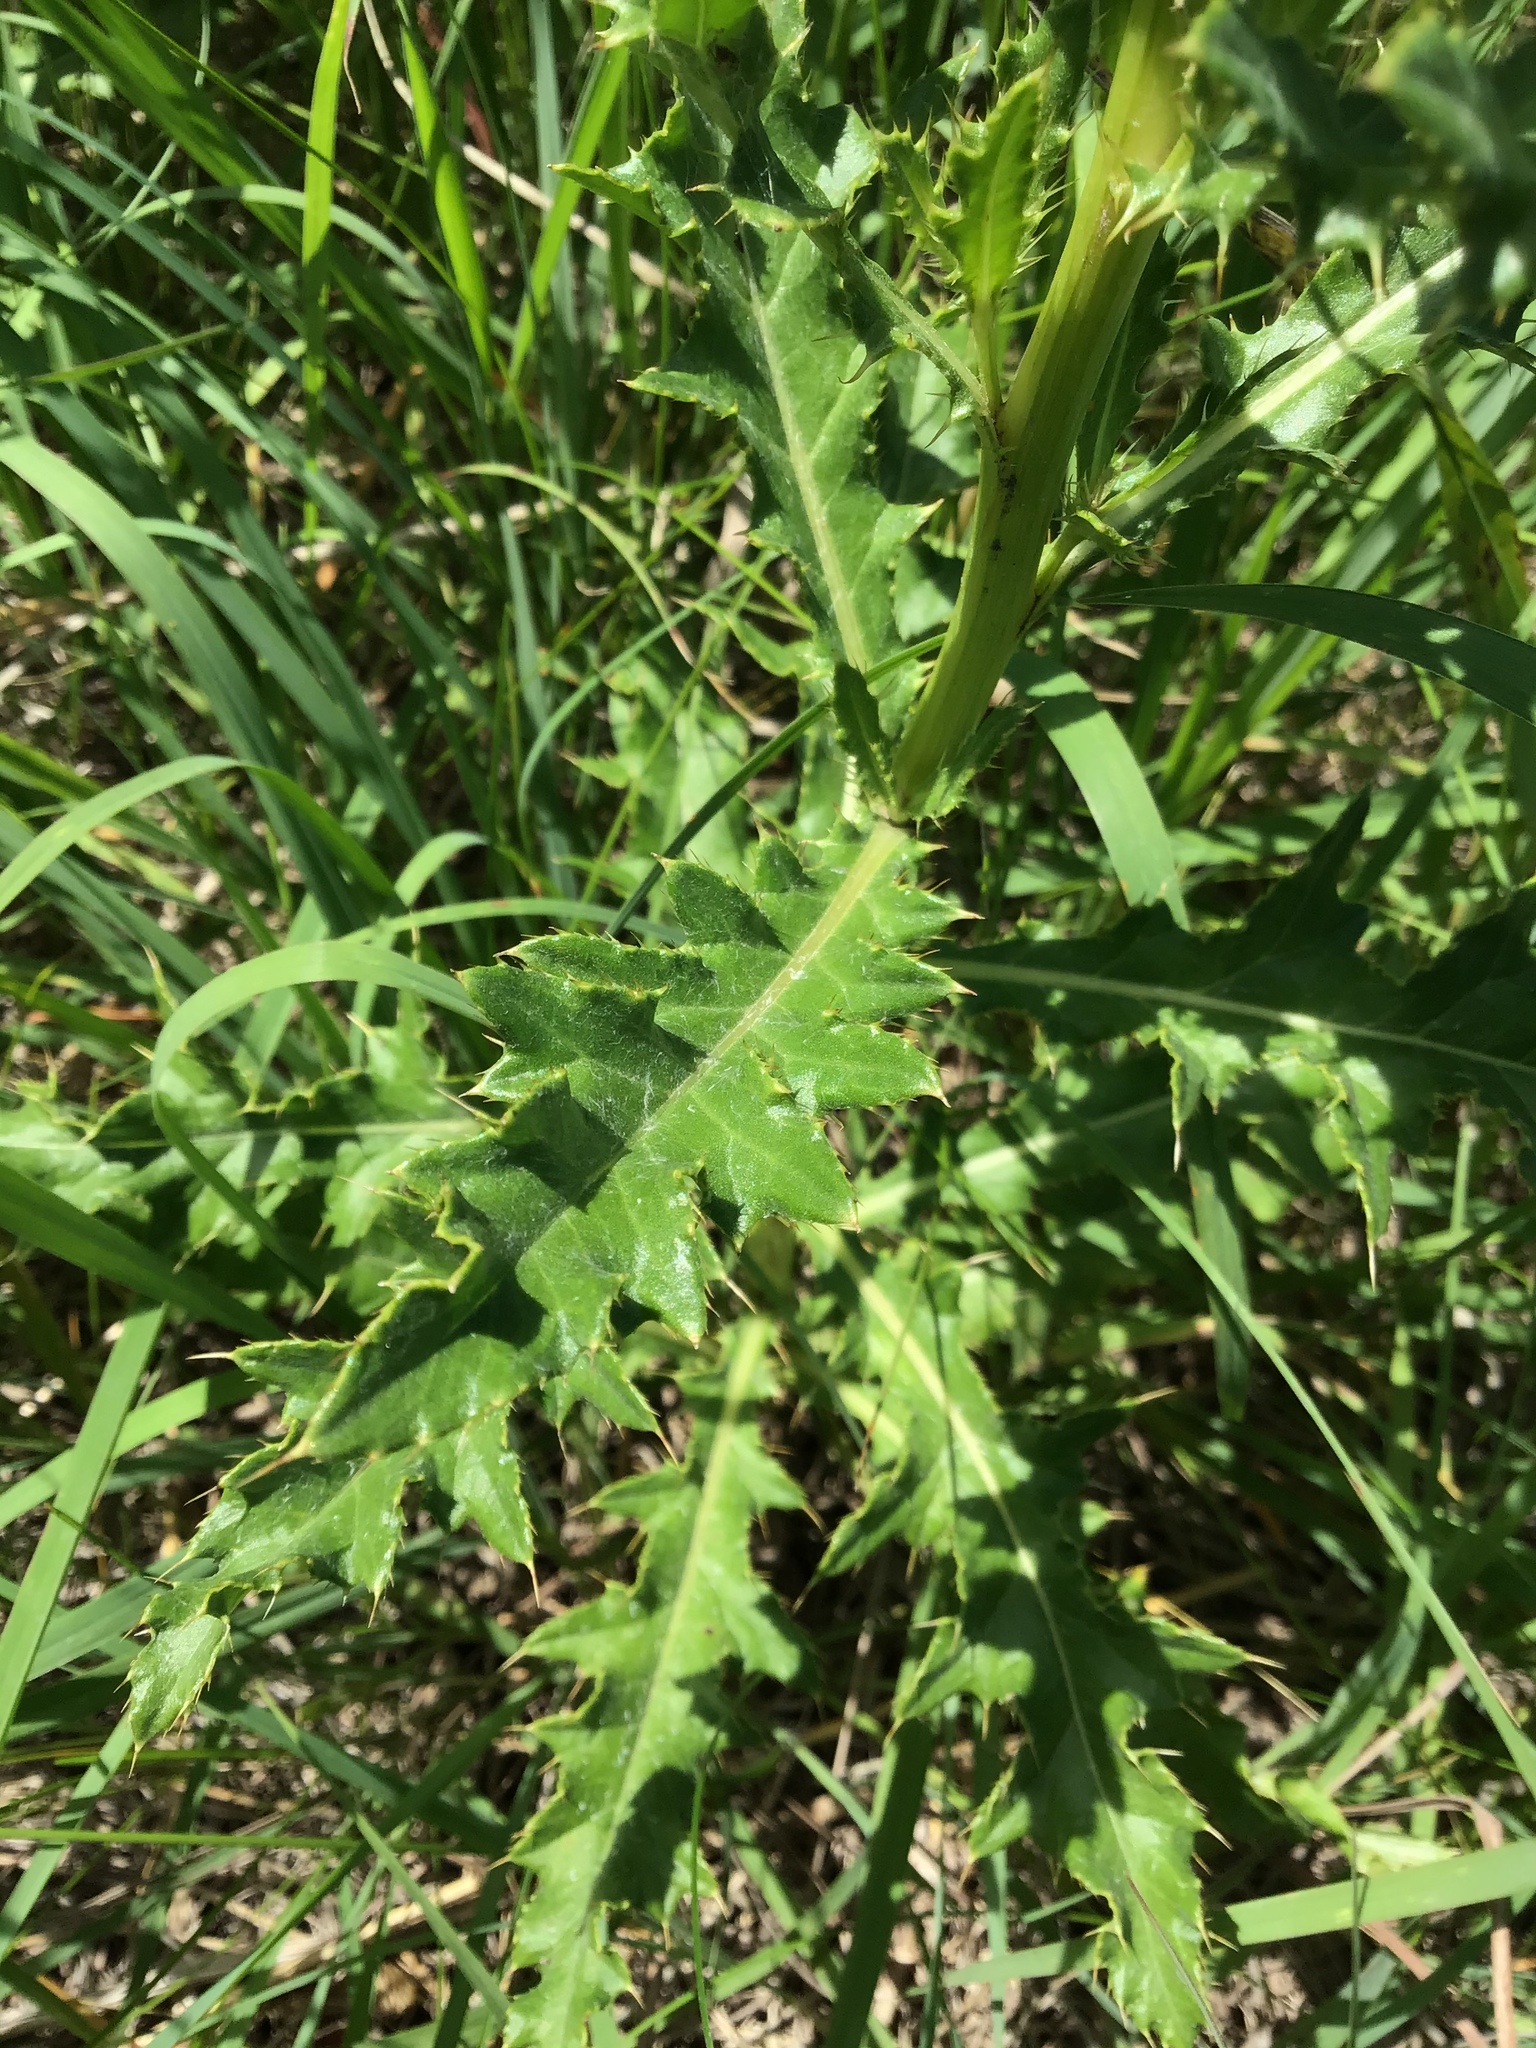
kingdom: Plantae
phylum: Tracheophyta
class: Magnoliopsida
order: Asterales
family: Asteraceae
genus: Cirsium
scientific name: Cirsium arvense
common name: Creeping thistle
